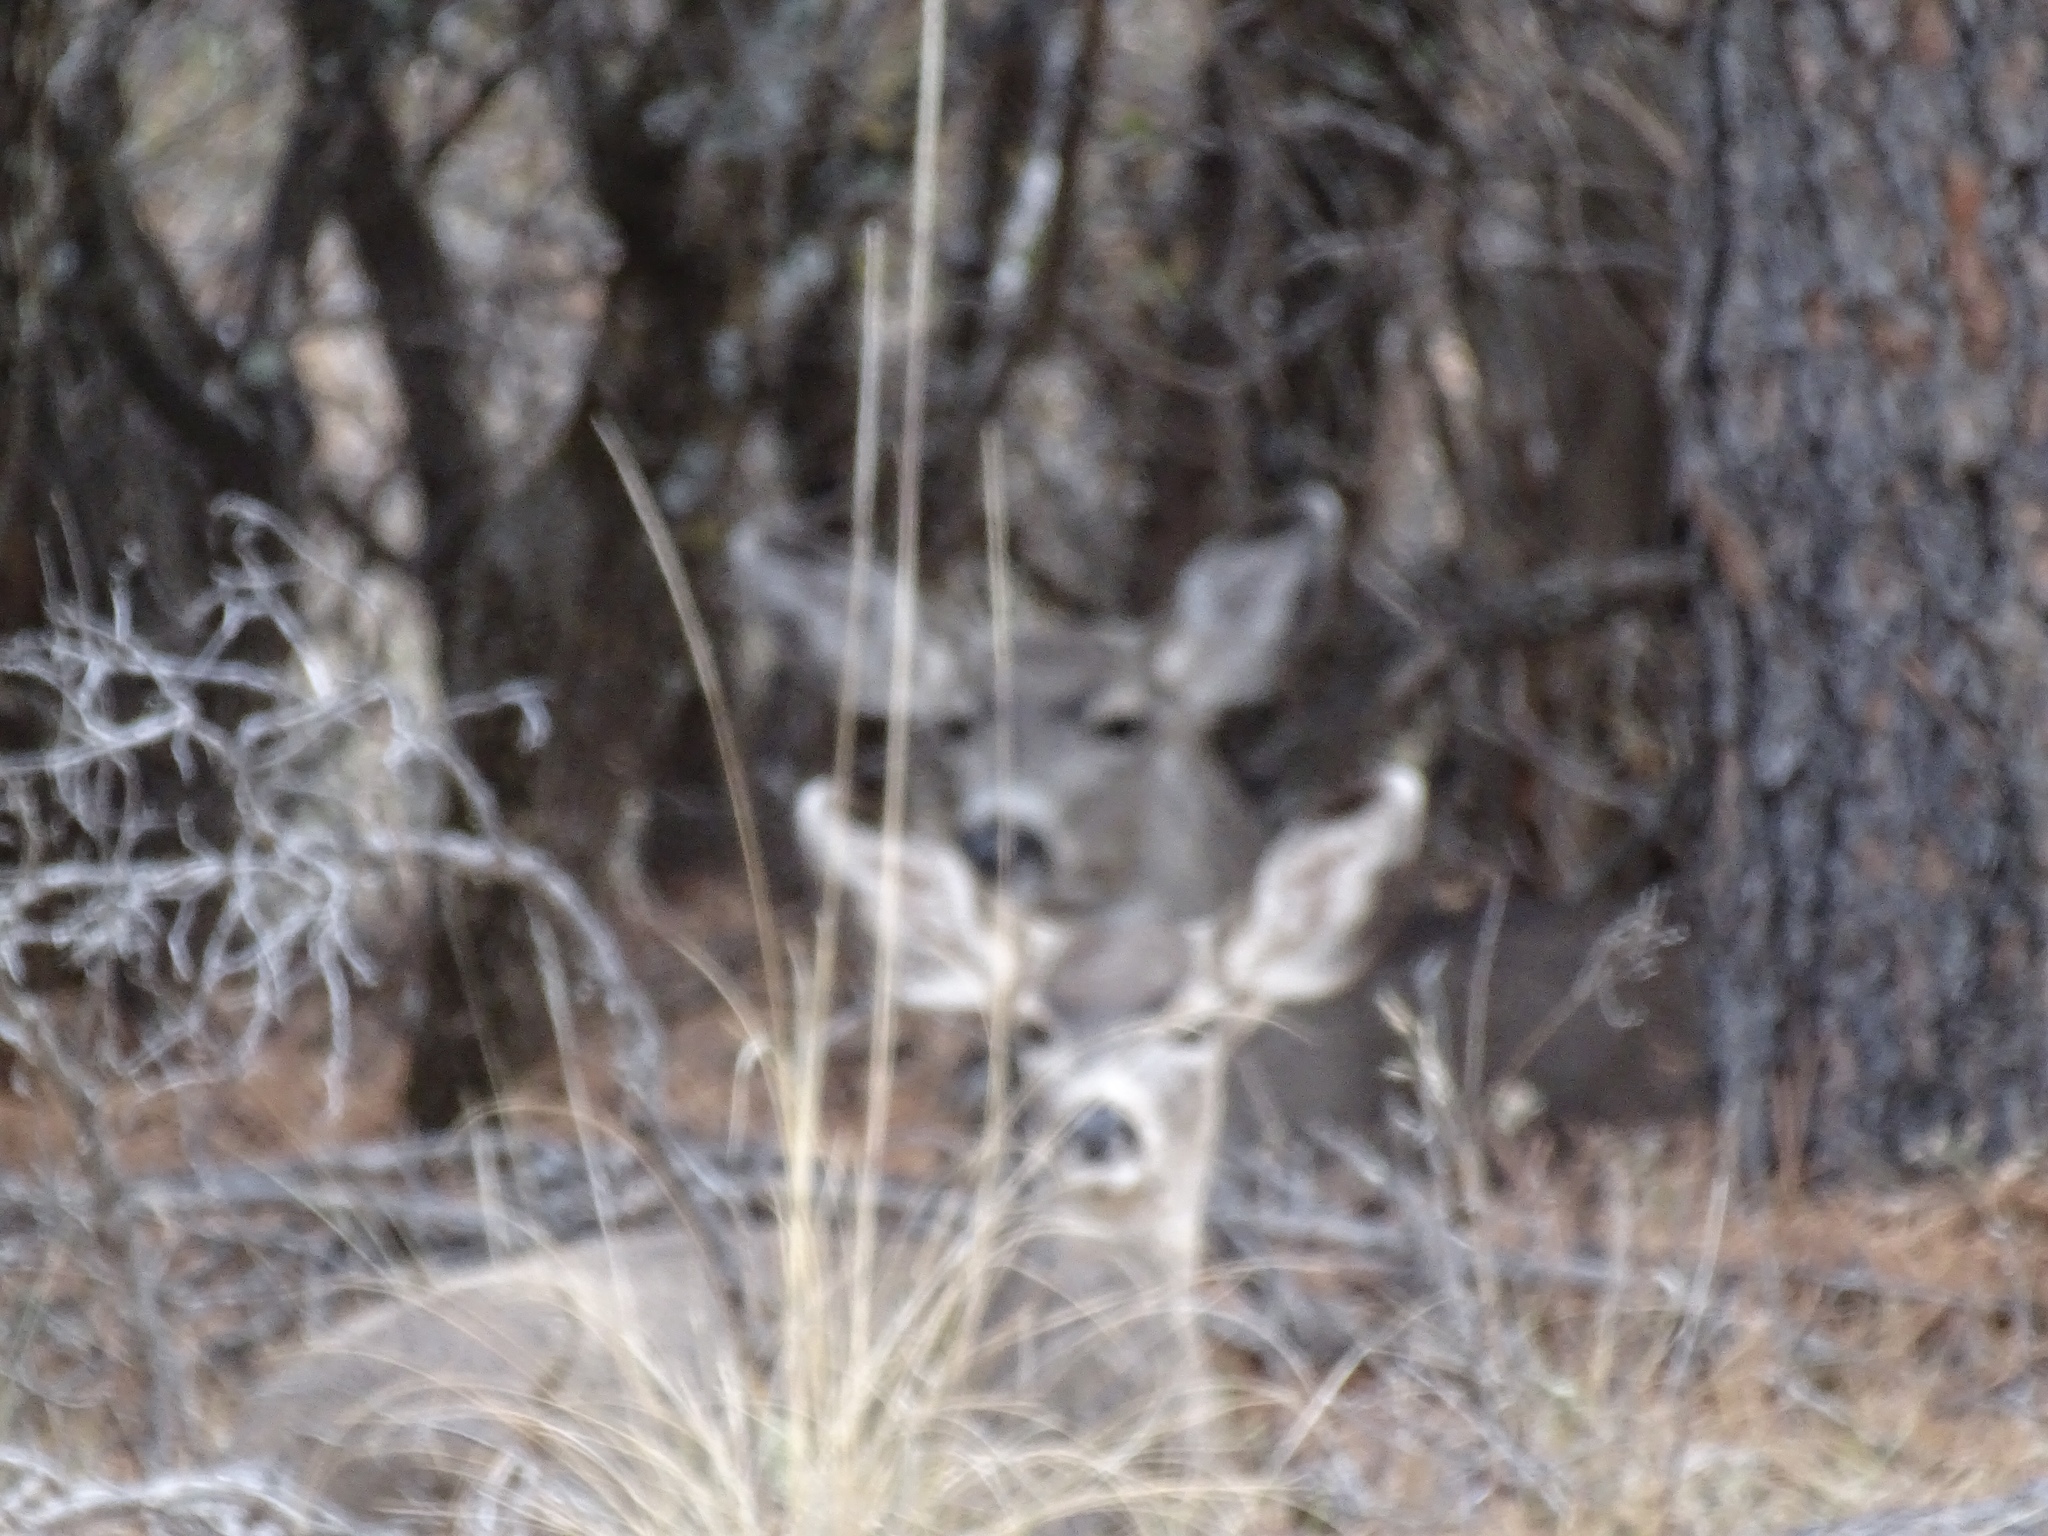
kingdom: Animalia
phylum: Chordata
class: Mammalia
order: Artiodactyla
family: Cervidae
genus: Odocoileus
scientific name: Odocoileus hemionus
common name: Mule deer
